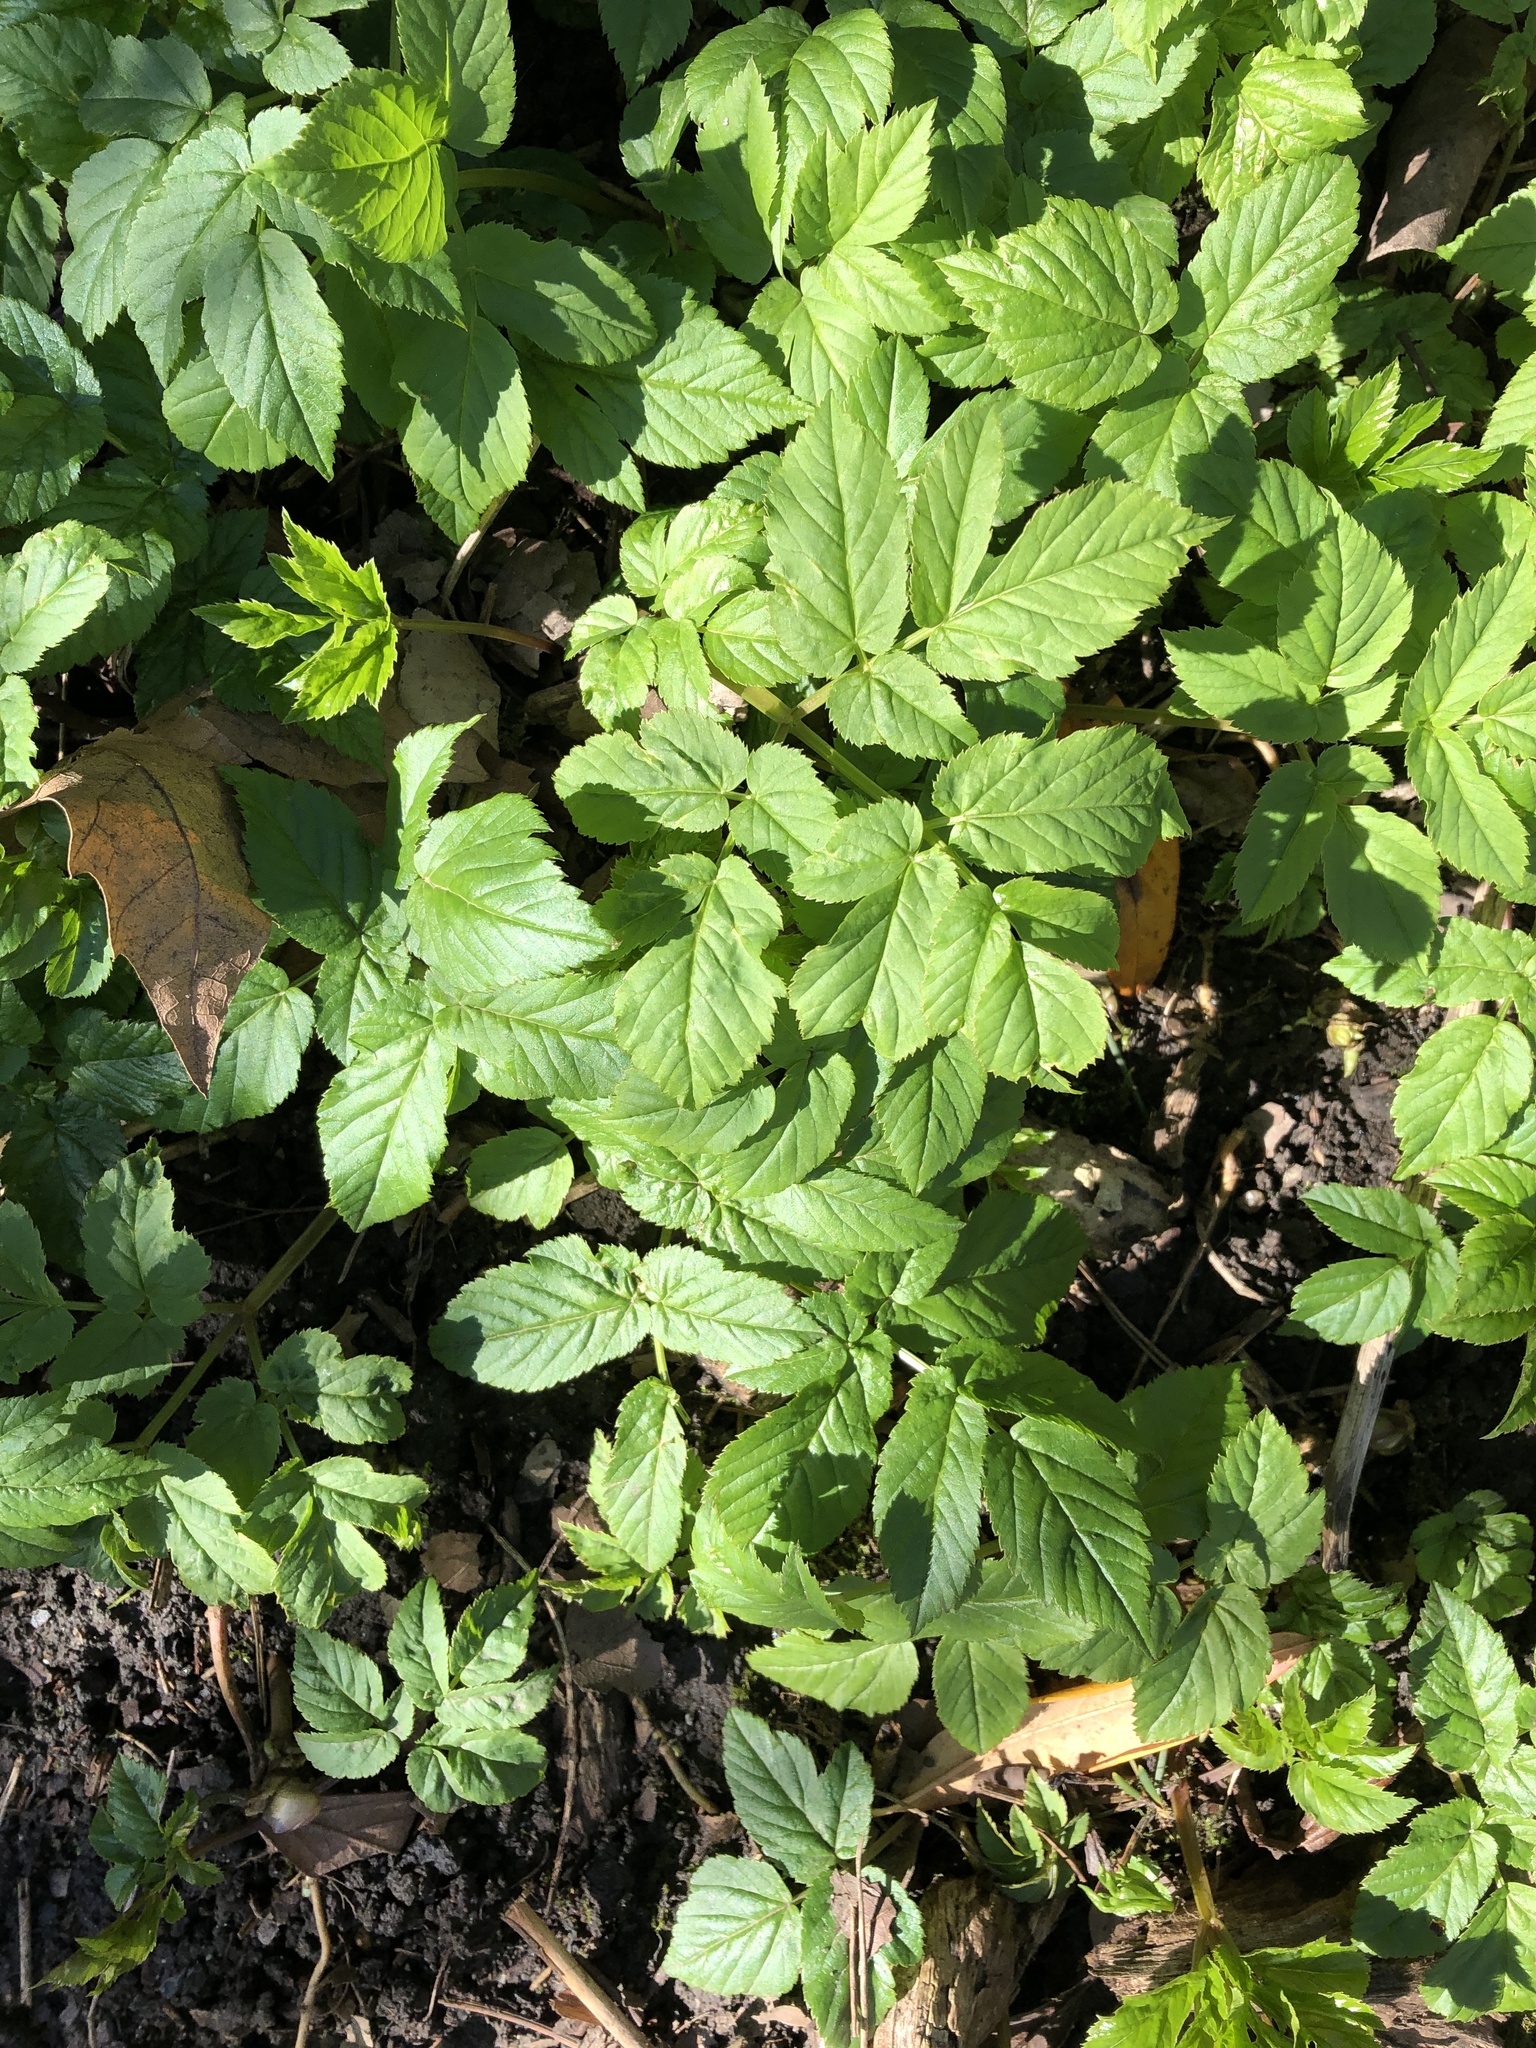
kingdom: Plantae
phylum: Tracheophyta
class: Magnoliopsida
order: Apiales
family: Apiaceae
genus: Aegopodium
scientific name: Aegopodium podagraria
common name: Ground-elder
